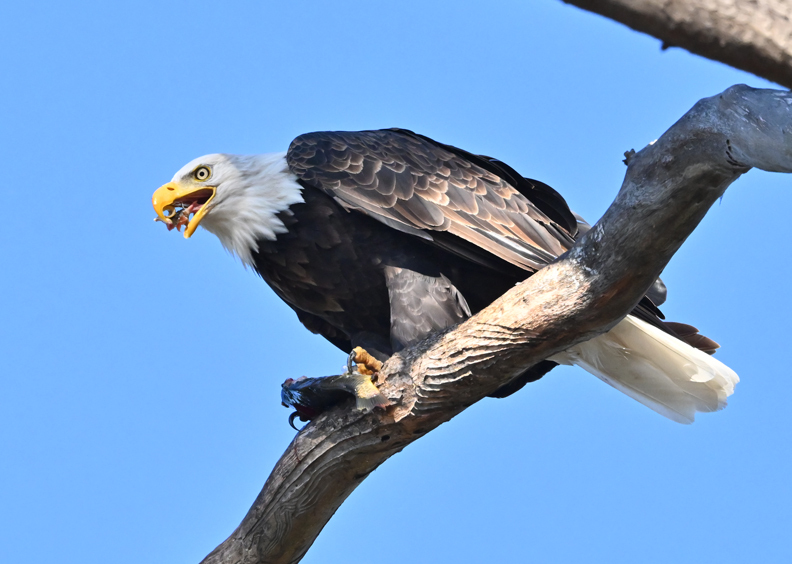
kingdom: Animalia
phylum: Chordata
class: Aves
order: Accipitriformes
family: Accipitridae
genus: Haliaeetus
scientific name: Haliaeetus leucocephalus
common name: Bald eagle
